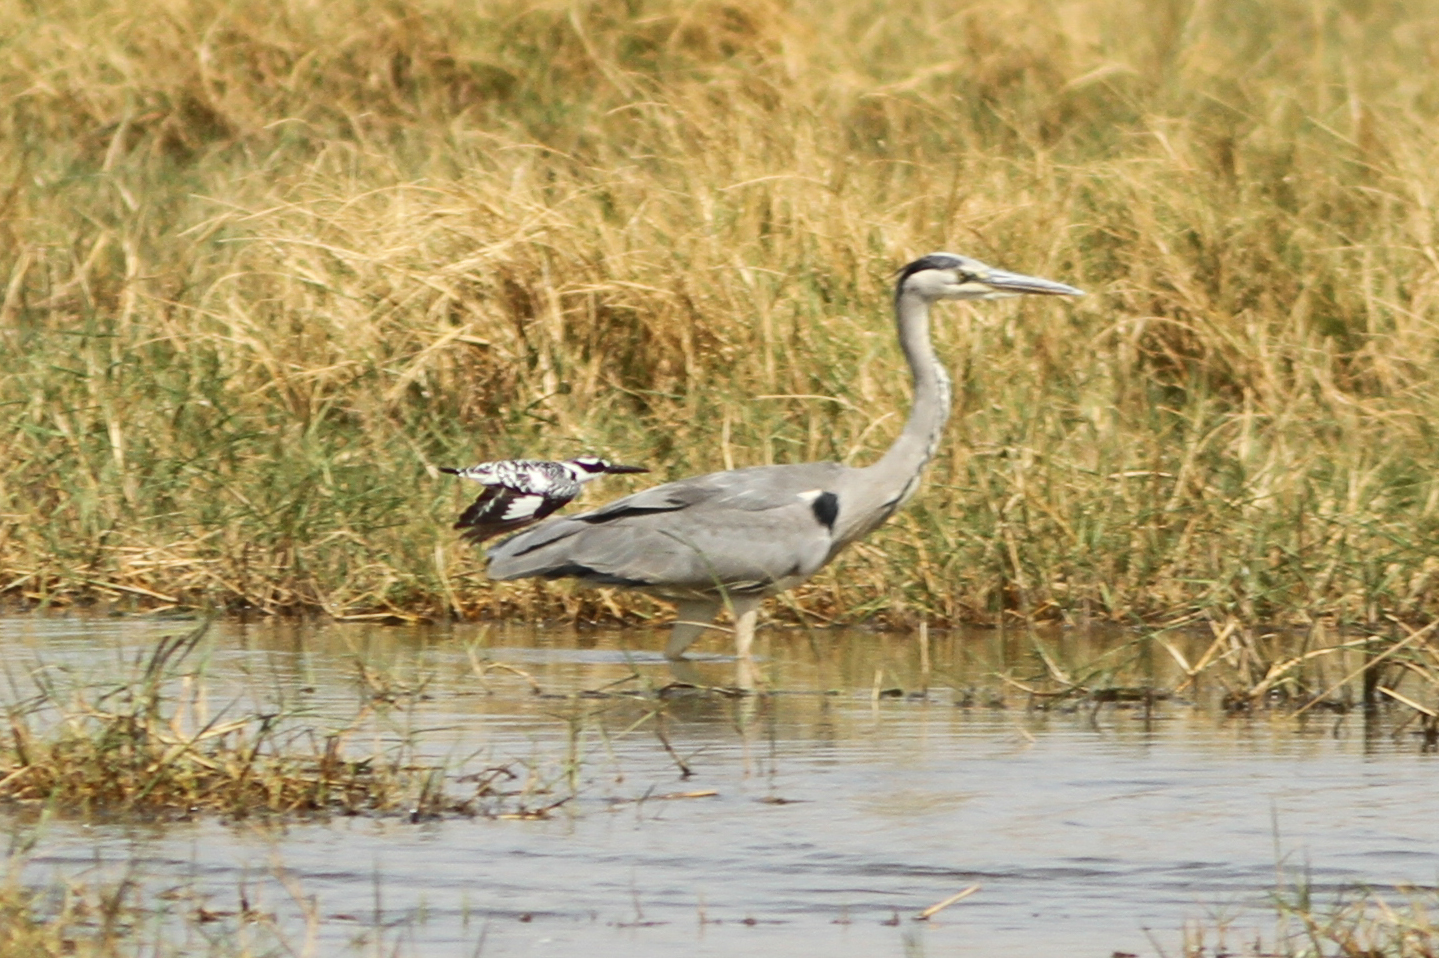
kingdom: Animalia
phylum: Chordata
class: Aves
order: Pelecaniformes
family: Ardeidae
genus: Ardea
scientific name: Ardea cinerea
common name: Grey heron
